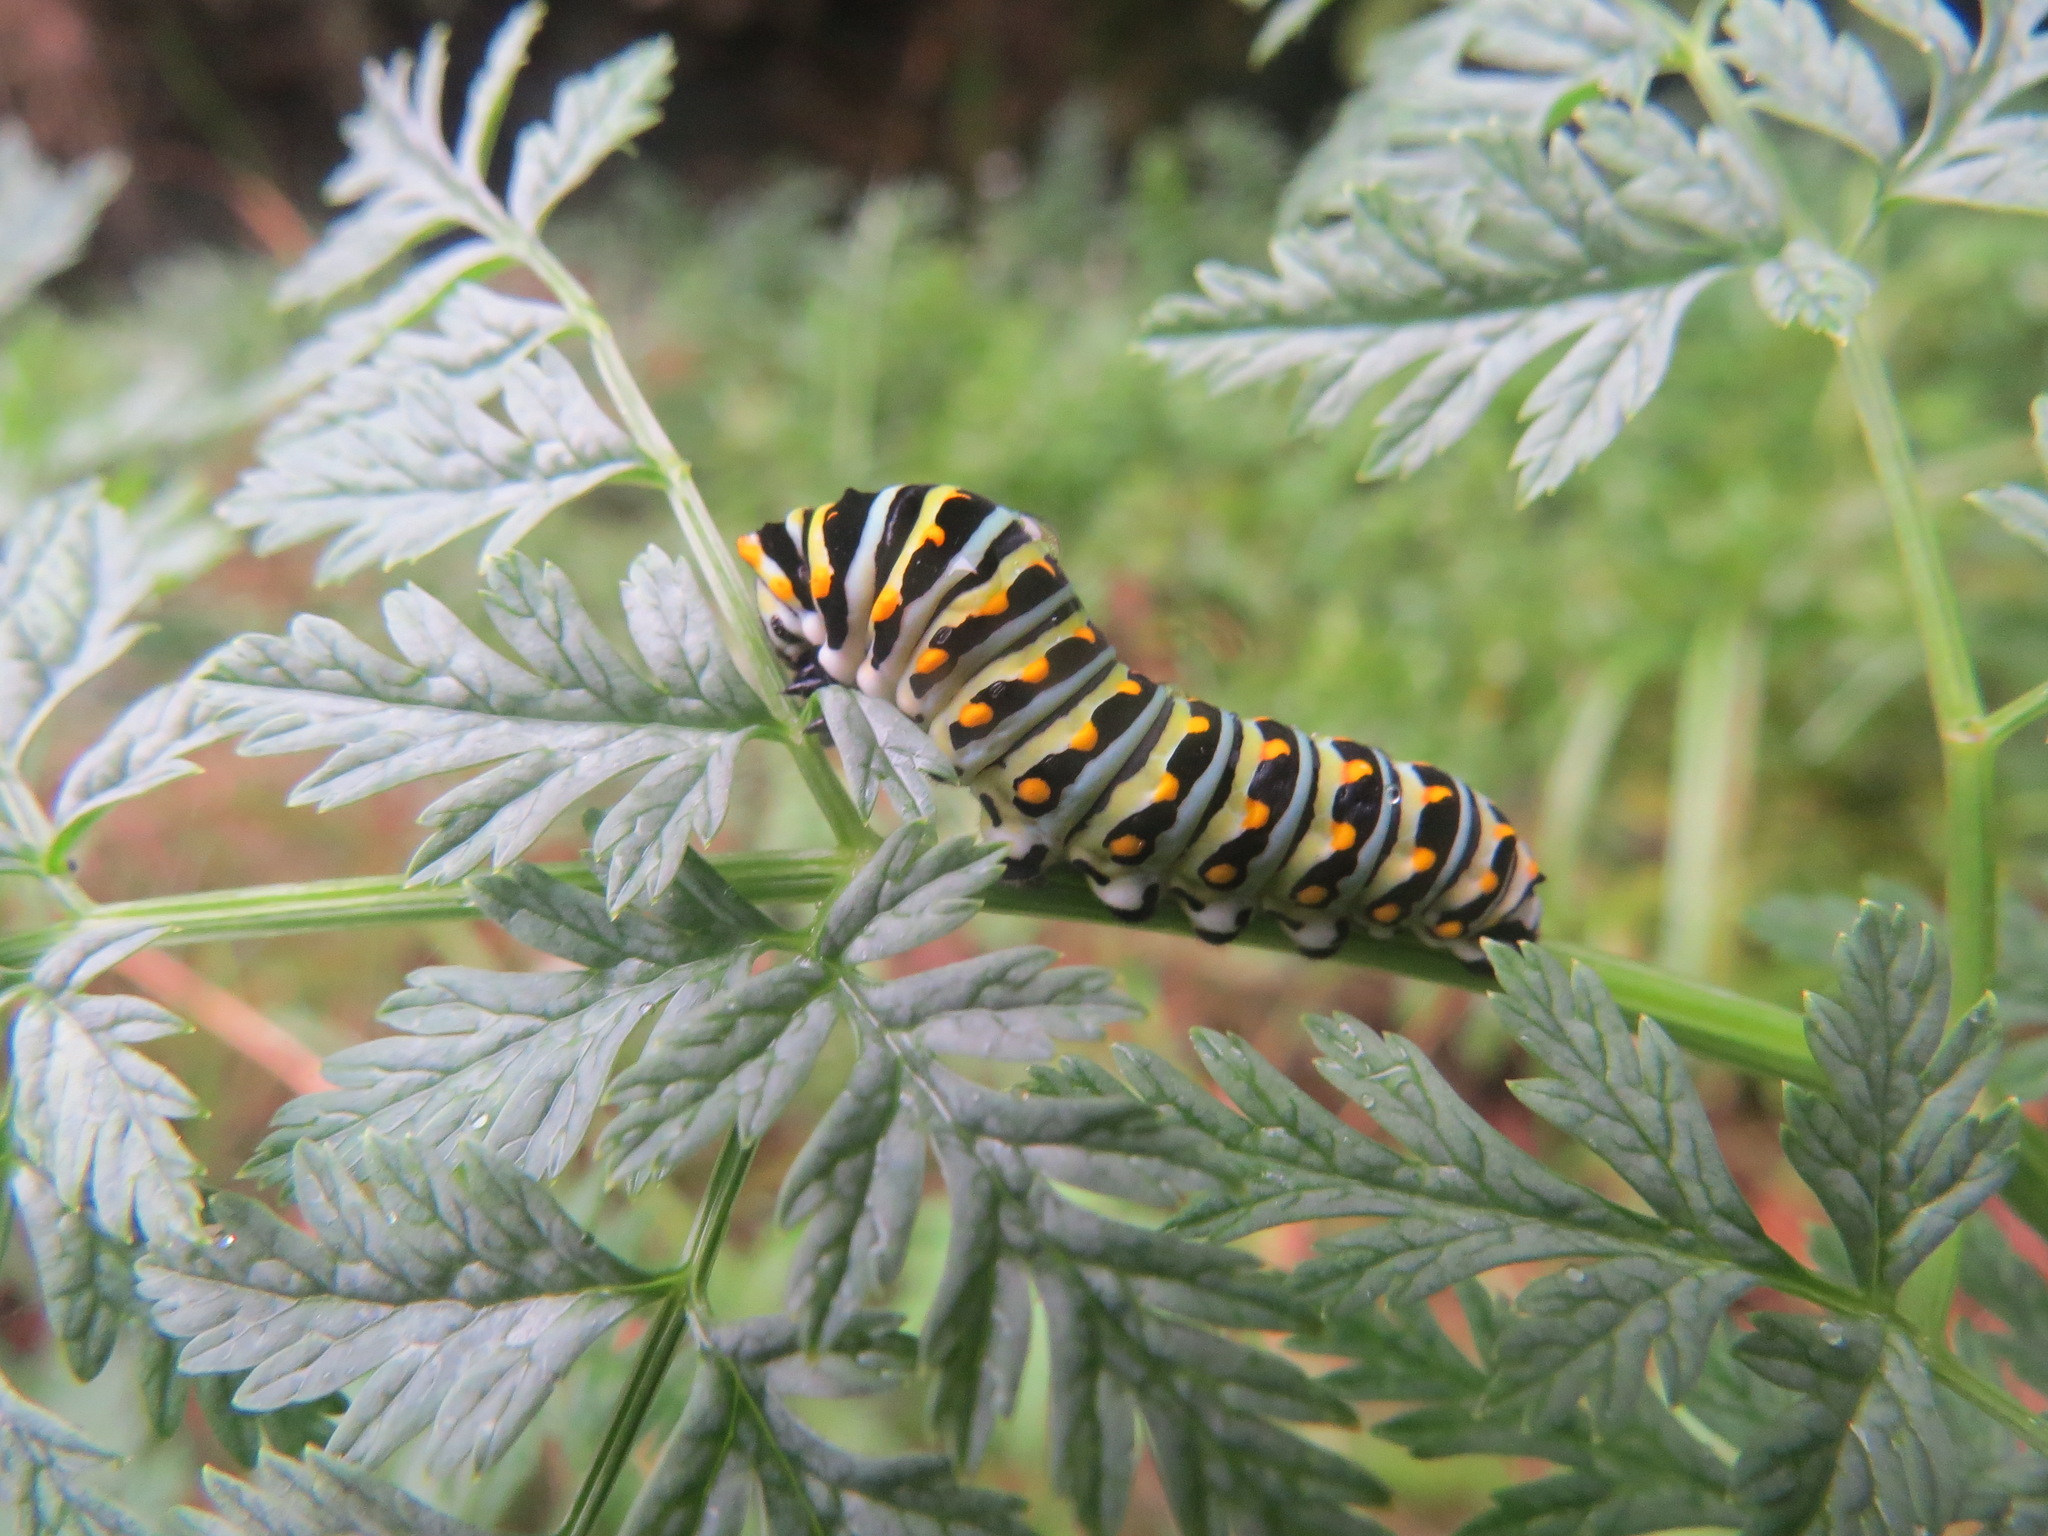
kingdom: Animalia
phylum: Arthropoda
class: Insecta
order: Lepidoptera
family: Papilionidae
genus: Papilio
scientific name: Papilio zelicaon
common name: Anise swallowtail
